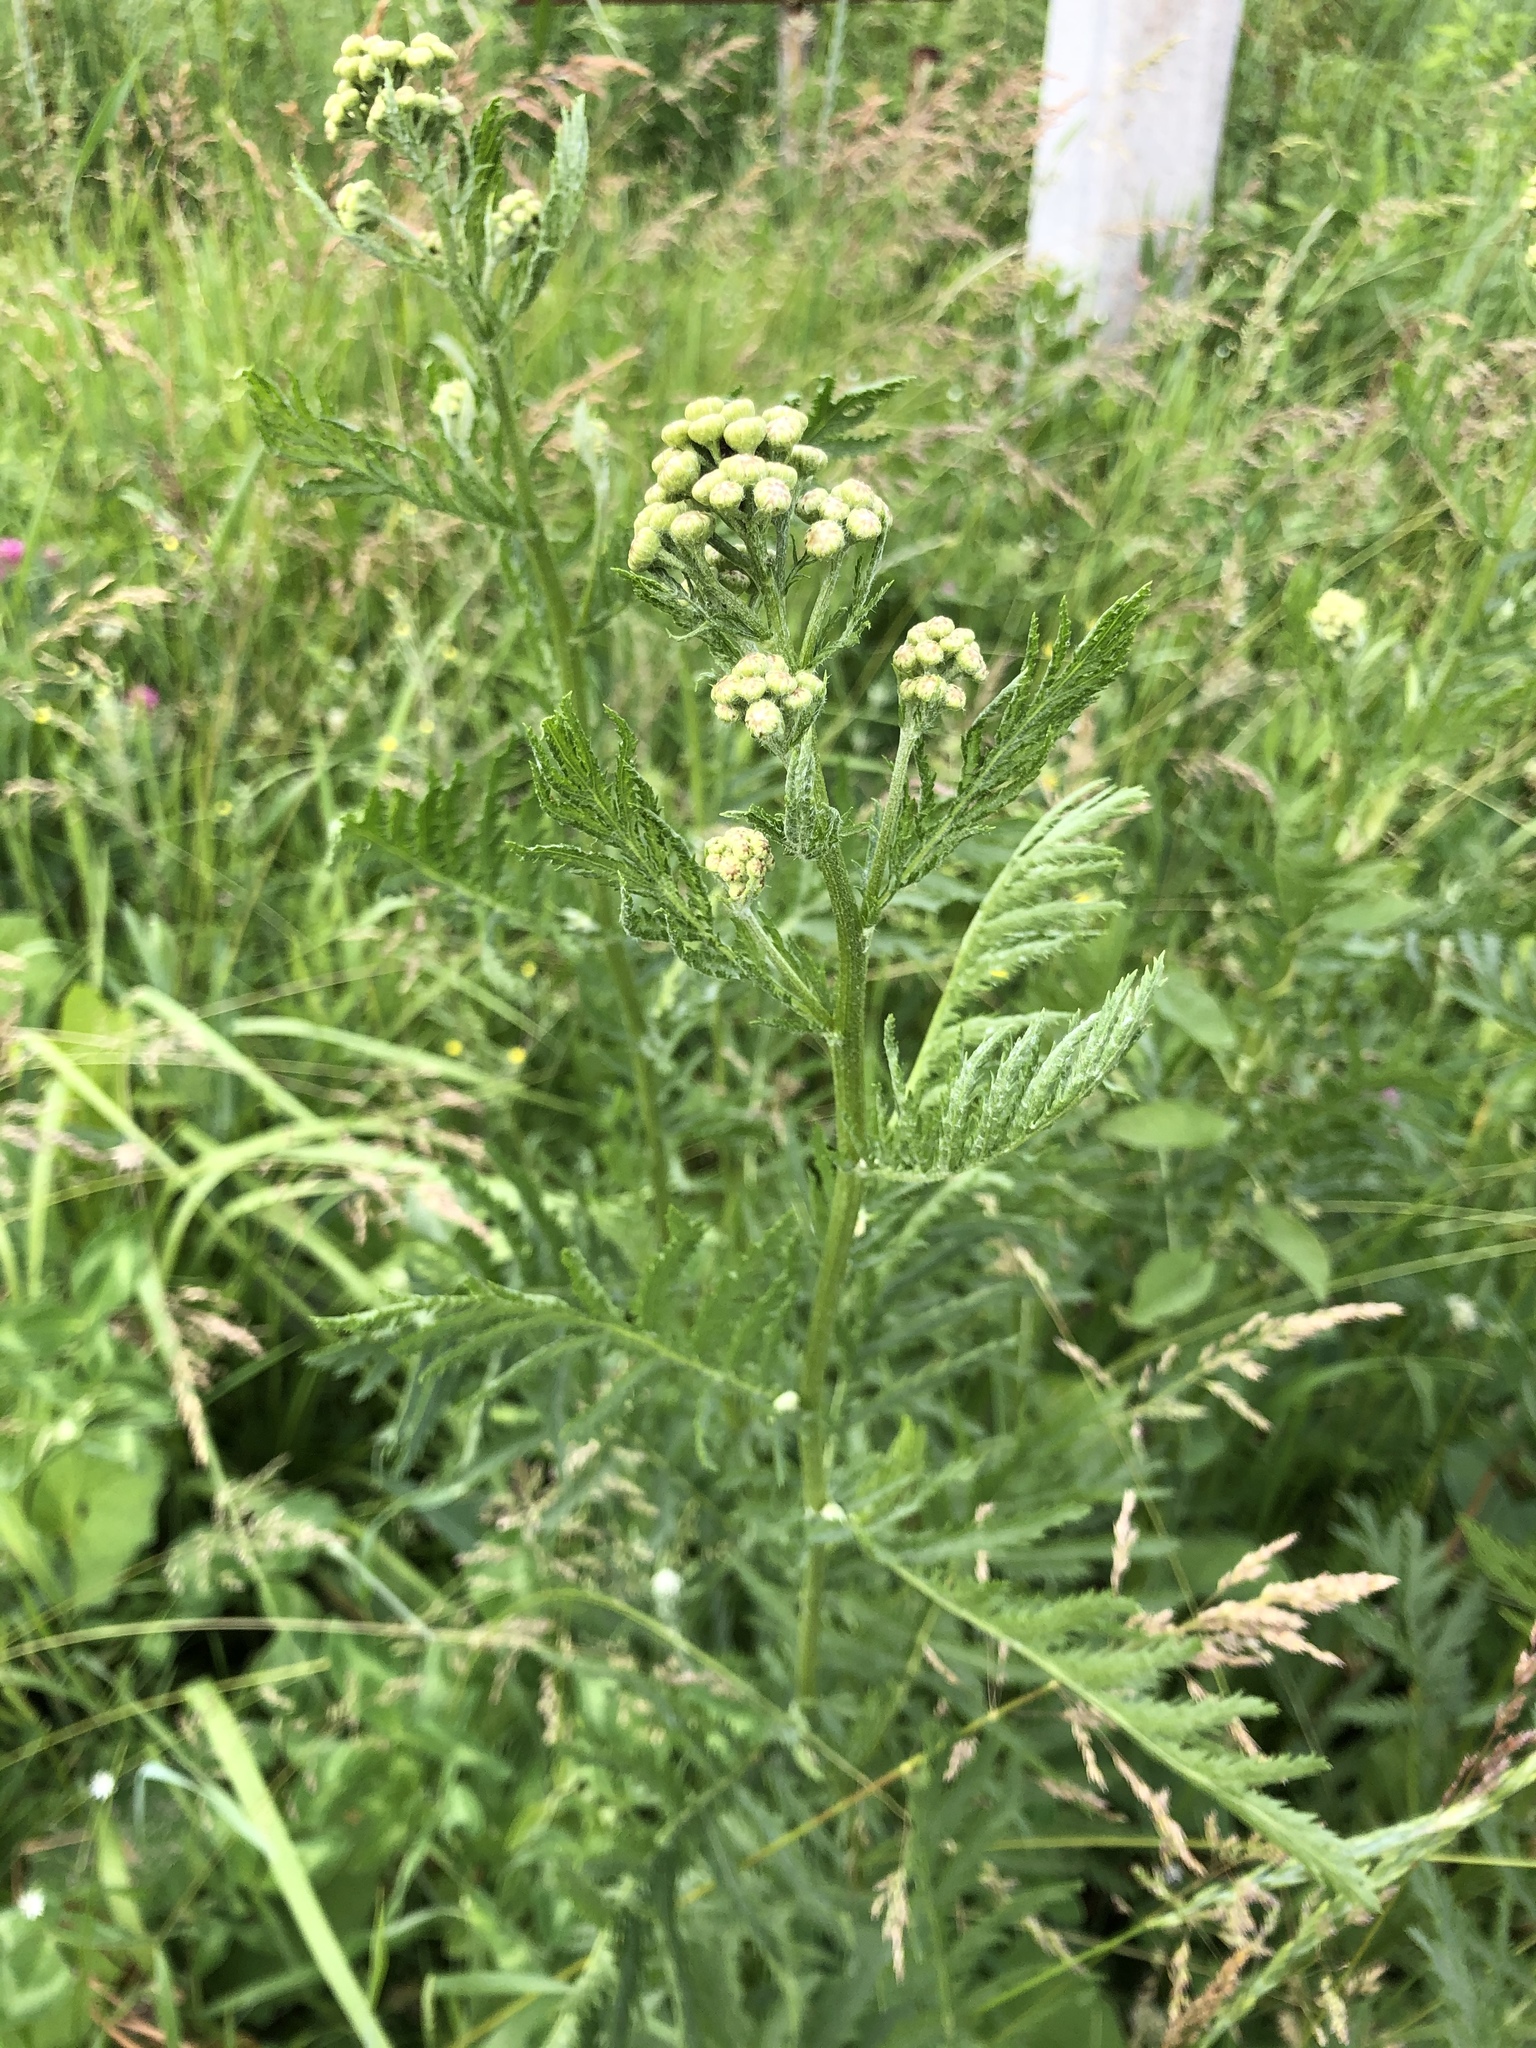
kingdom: Plantae
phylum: Tracheophyta
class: Magnoliopsida
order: Asterales
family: Asteraceae
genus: Tanacetum
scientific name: Tanacetum vulgare
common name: Common tansy
